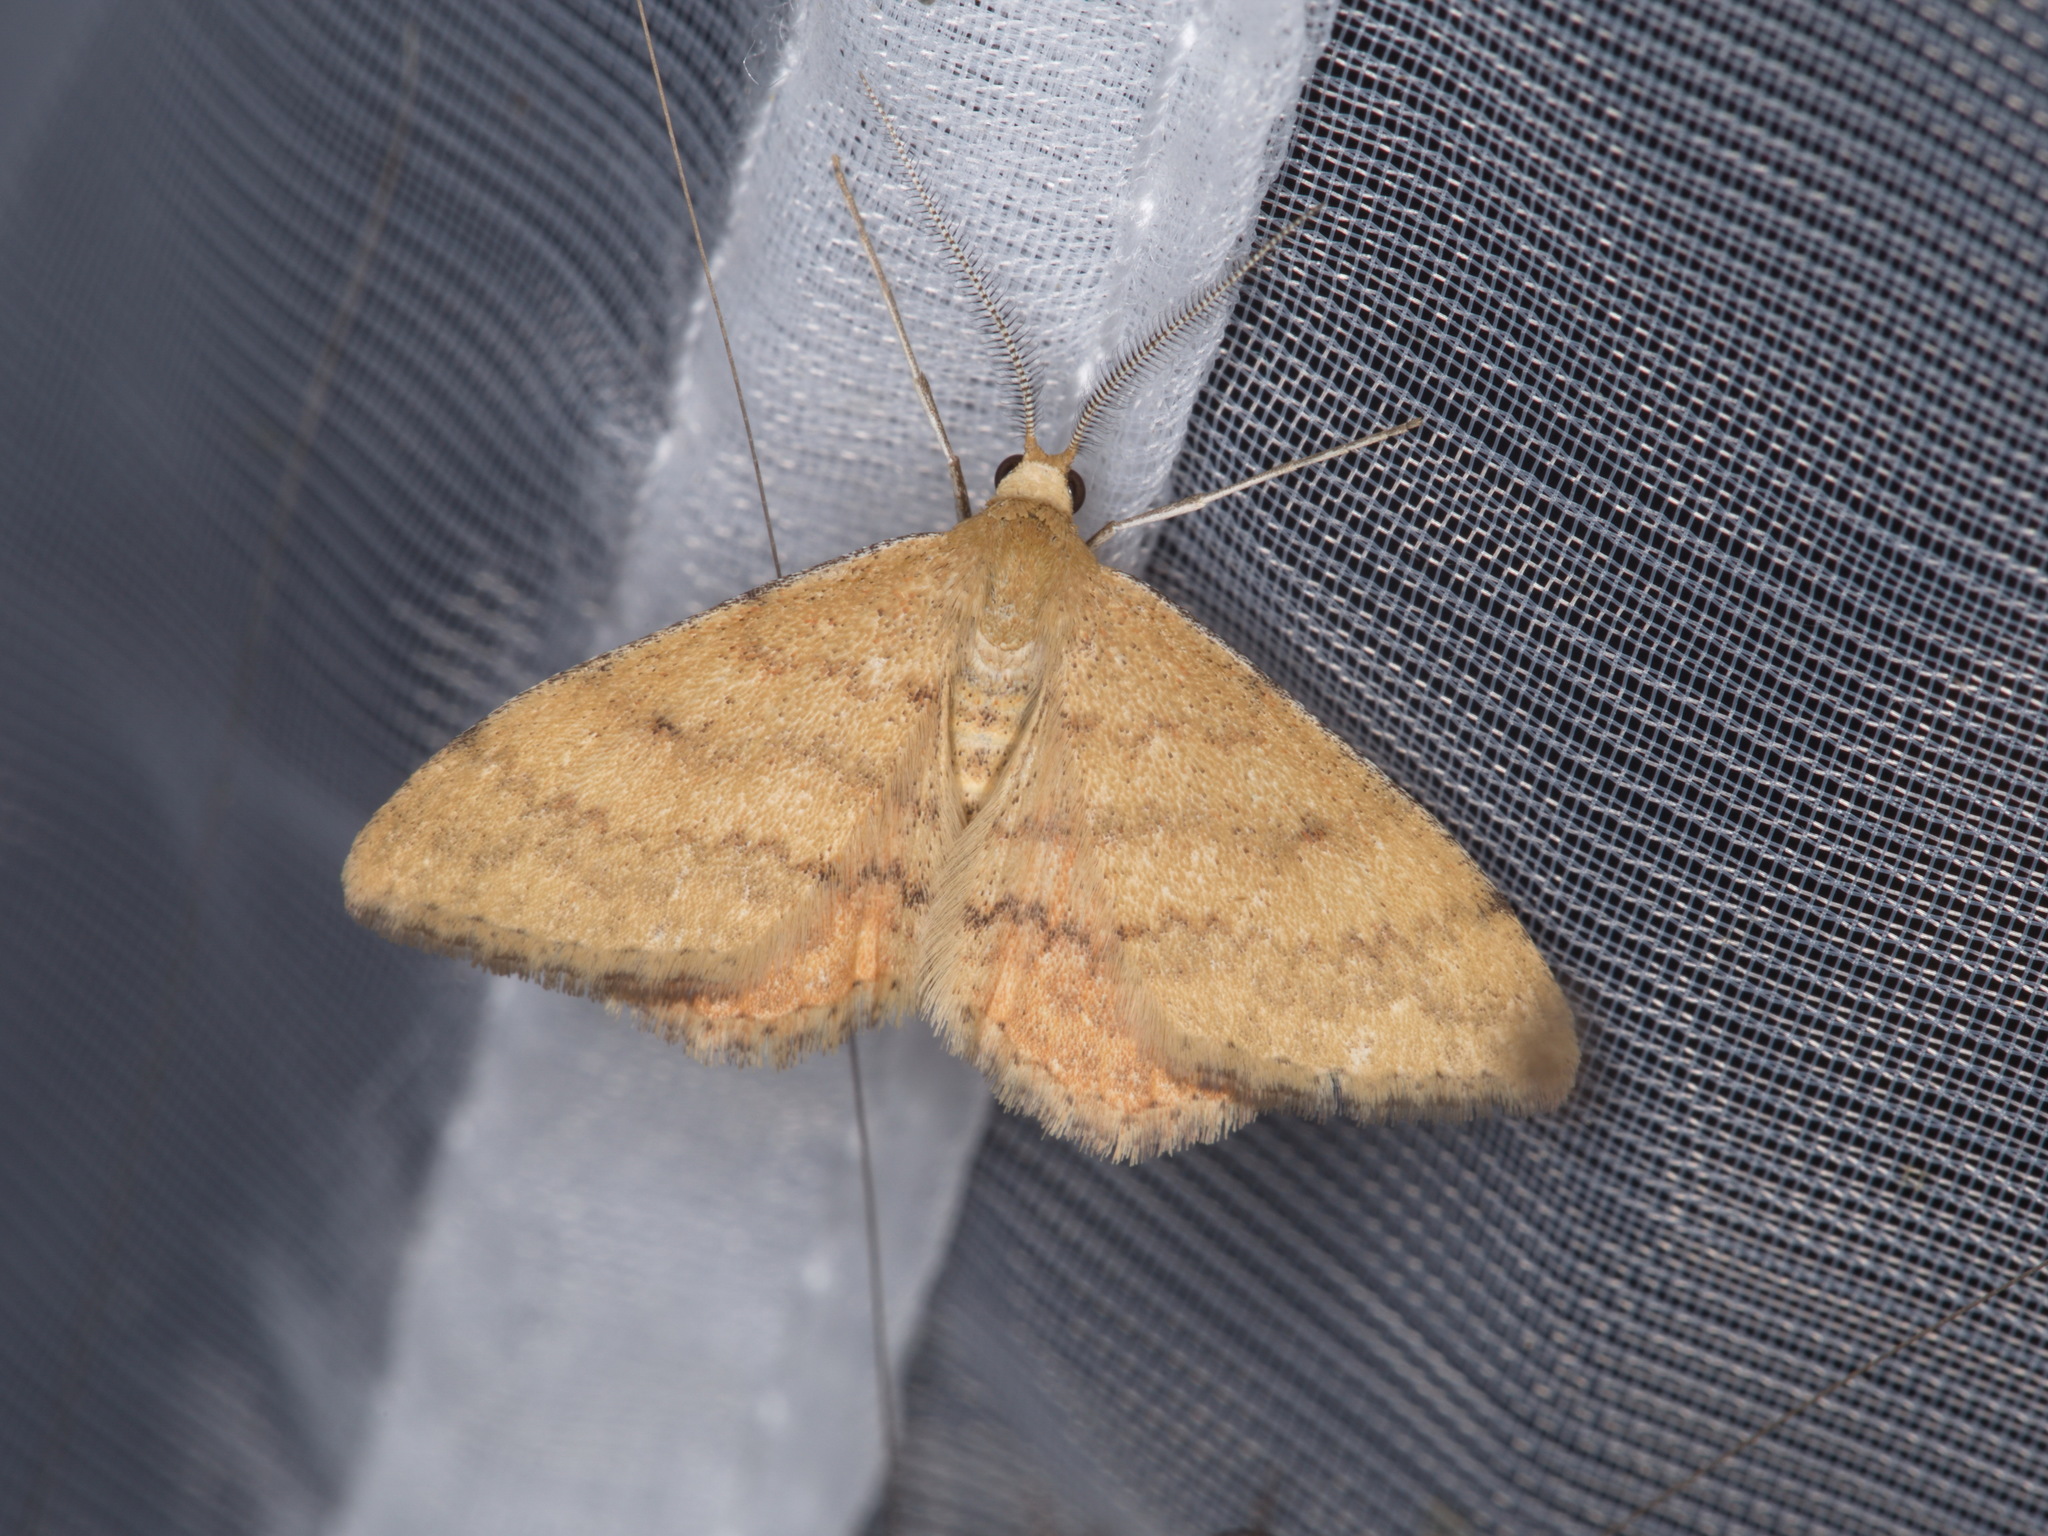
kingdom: Animalia
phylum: Arthropoda
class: Insecta
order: Lepidoptera
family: Geometridae
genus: Scopula
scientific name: Scopula rubraria
